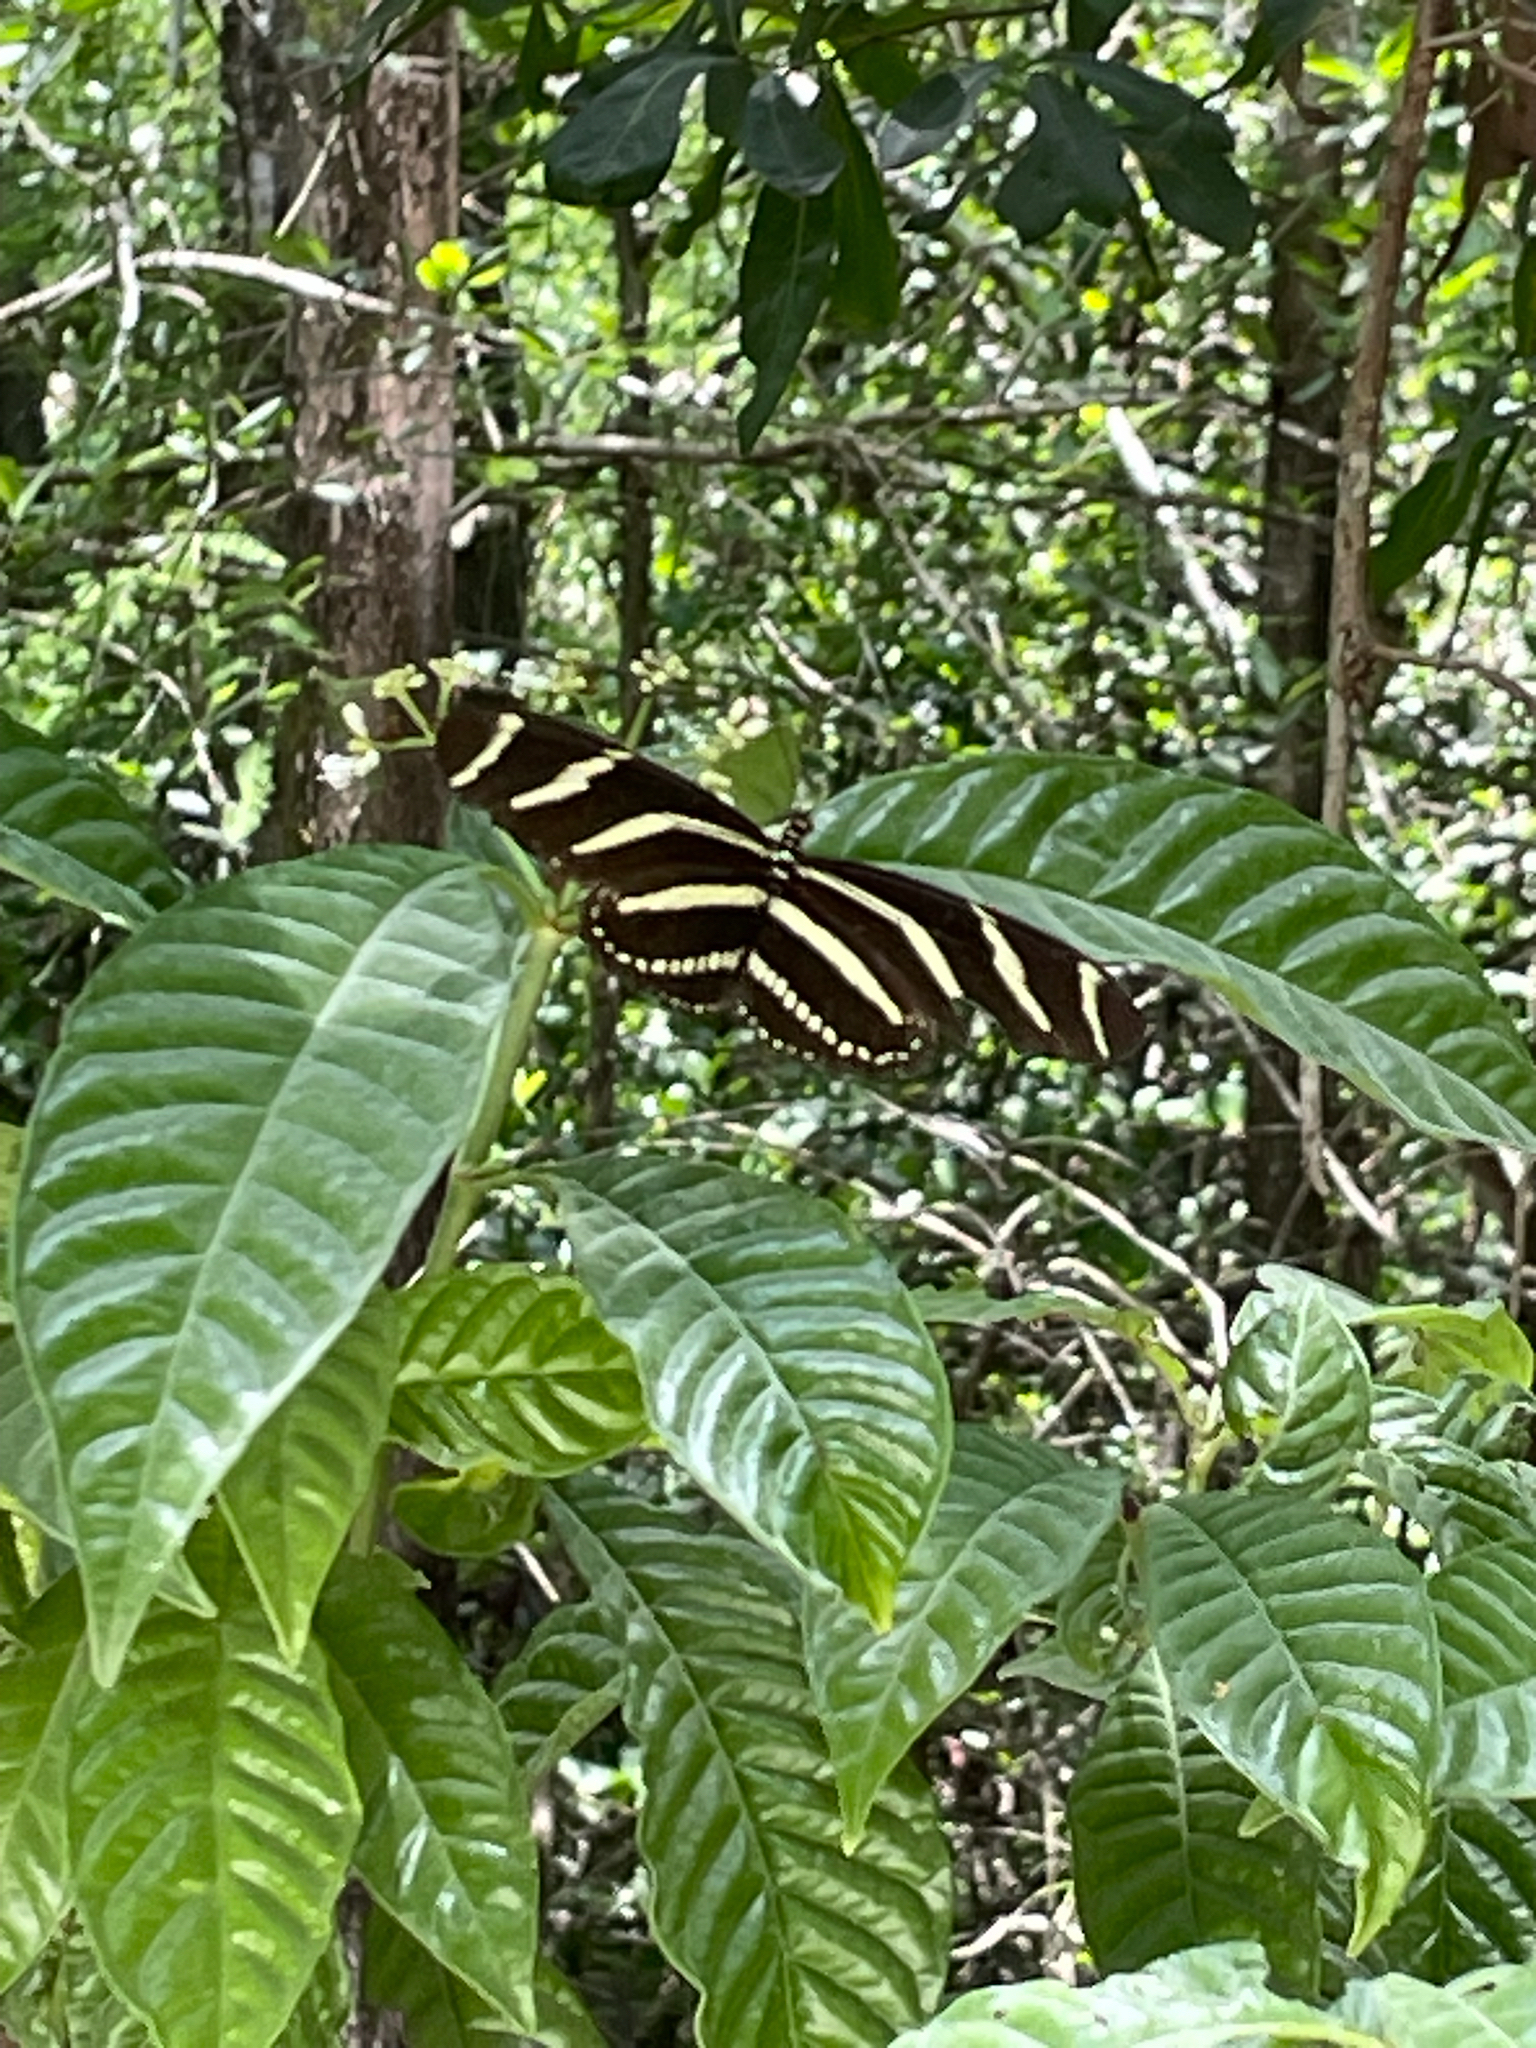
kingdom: Animalia
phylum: Arthropoda
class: Insecta
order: Lepidoptera
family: Nymphalidae
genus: Heliconius
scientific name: Heliconius charithonia
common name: Zebra long wing
